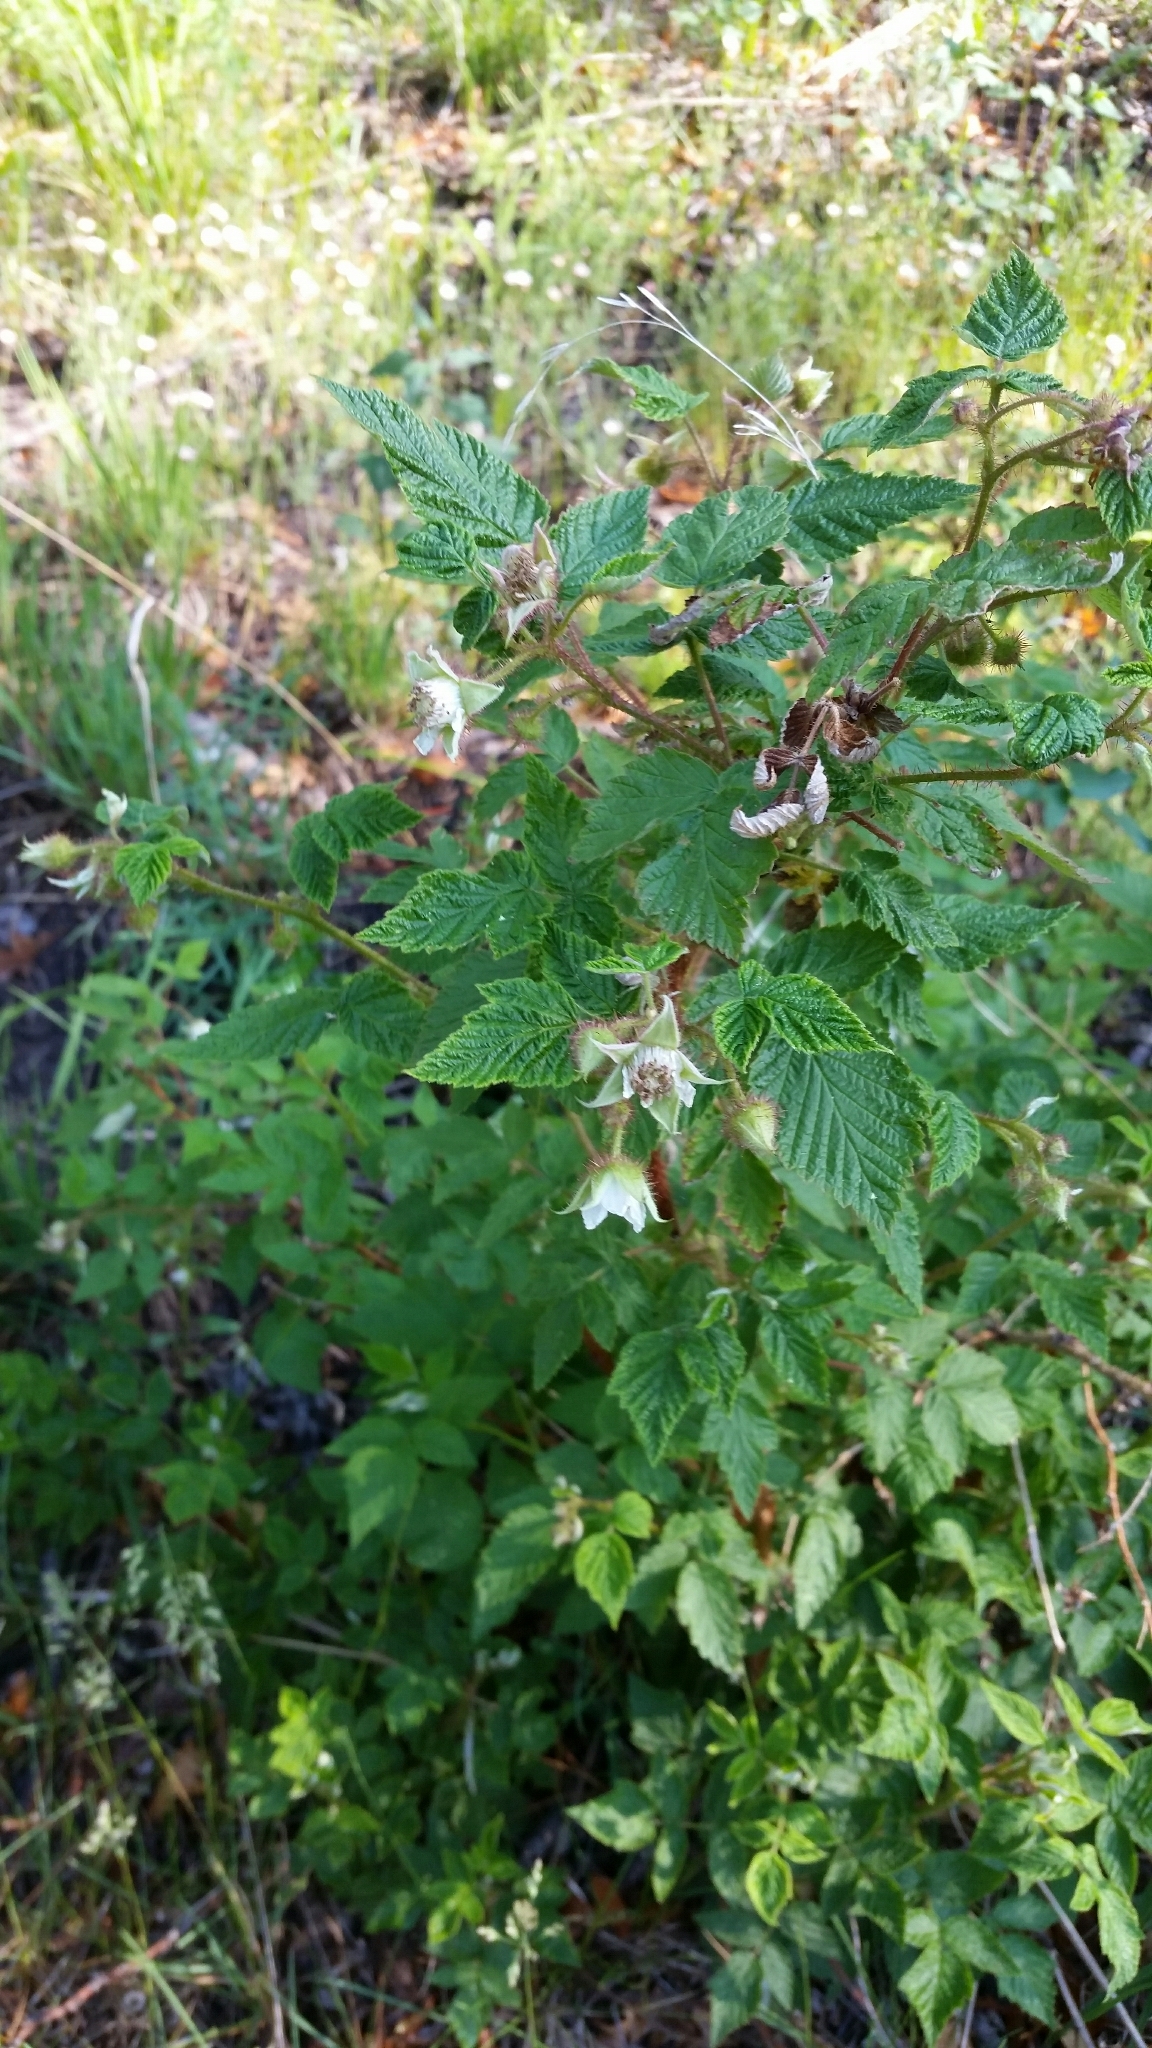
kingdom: Plantae
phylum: Tracheophyta
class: Magnoliopsida
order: Rosales
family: Rosaceae
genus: Rubus
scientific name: Rubus idaeus
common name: Raspberry
